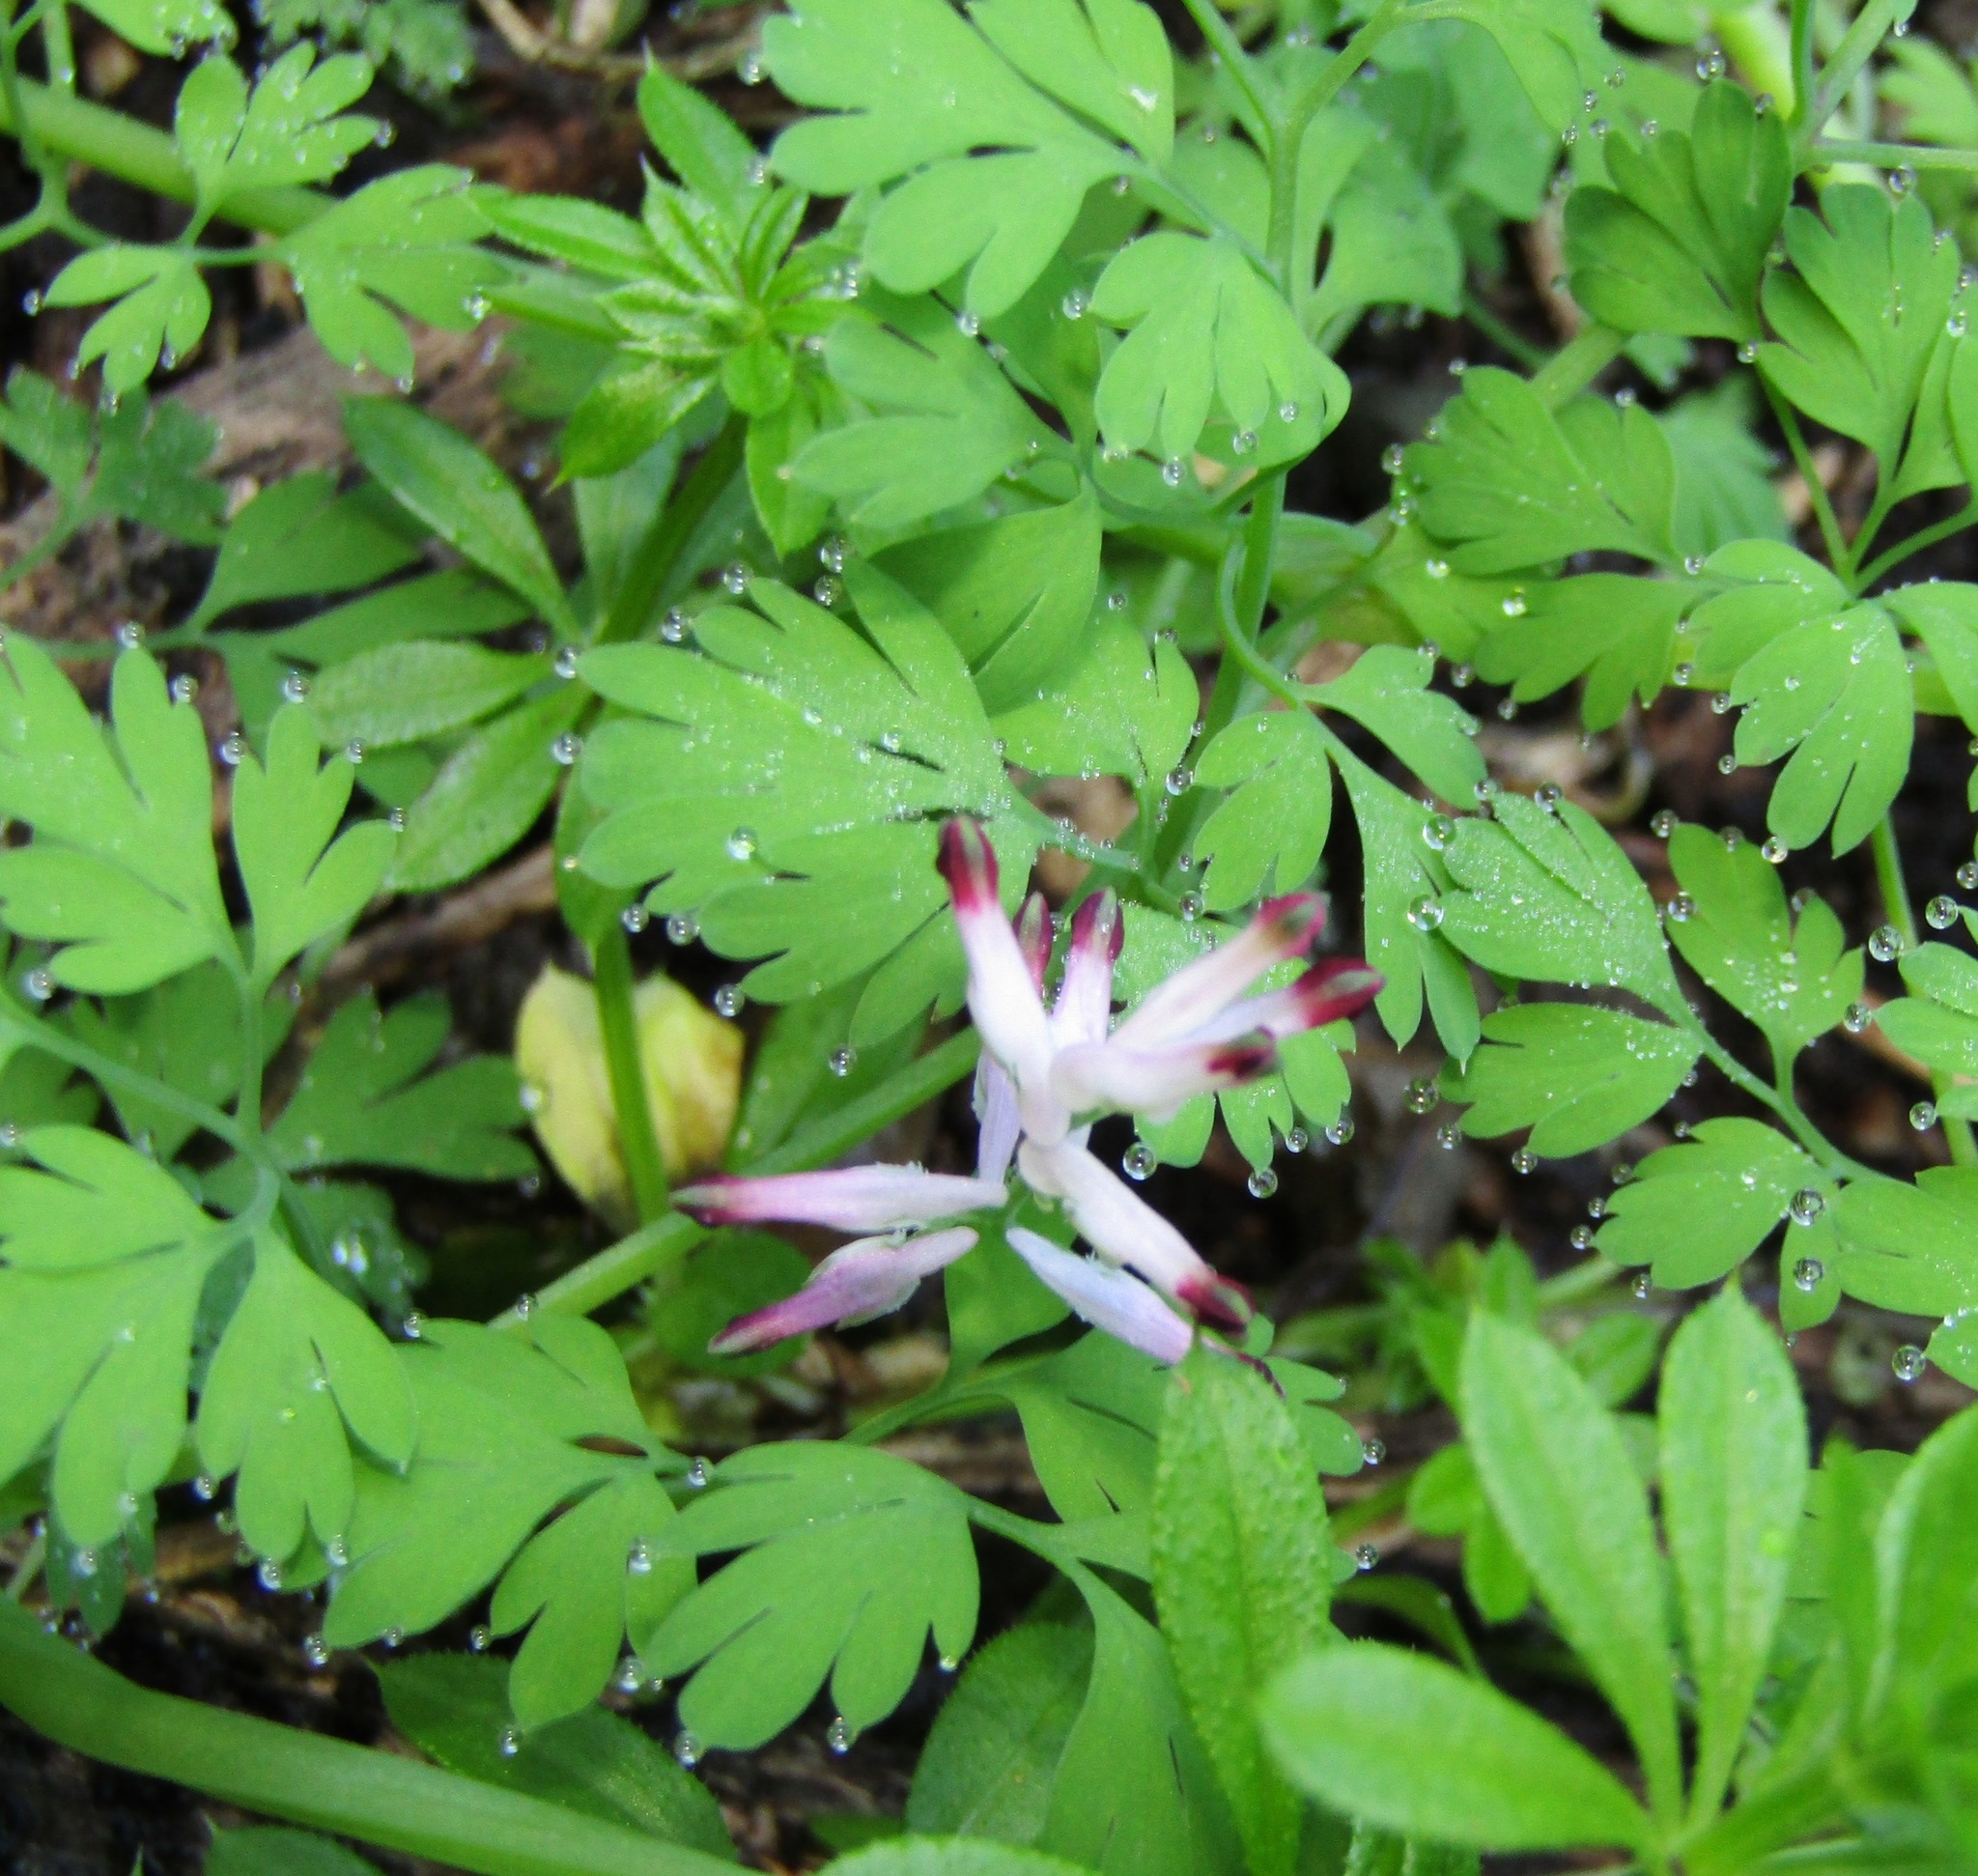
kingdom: Plantae
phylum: Tracheophyta
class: Magnoliopsida
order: Ranunculales
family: Papaveraceae
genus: Fumaria
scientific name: Fumaria muralis
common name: Common ramping-fumitory
